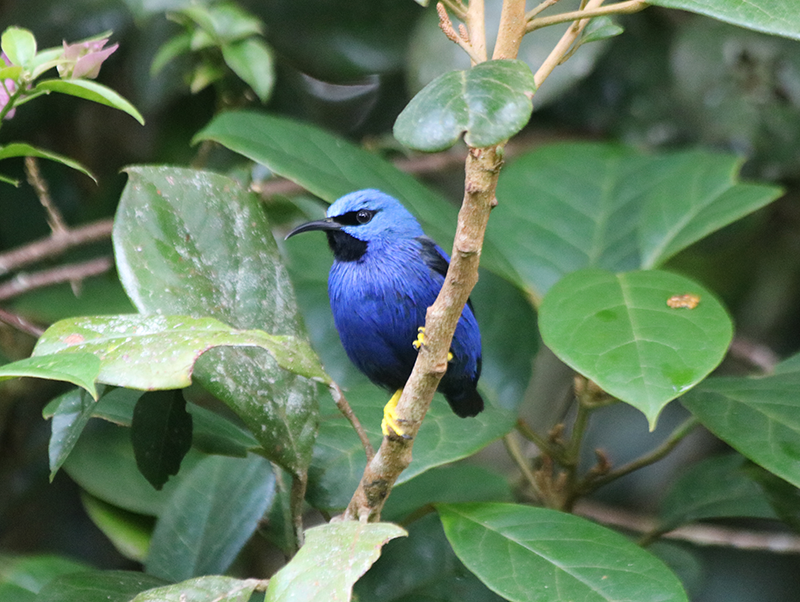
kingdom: Animalia
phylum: Chordata
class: Aves
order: Passeriformes
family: Thraupidae
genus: Cyanerpes
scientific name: Cyanerpes lucidus
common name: Shining honeycreeper
